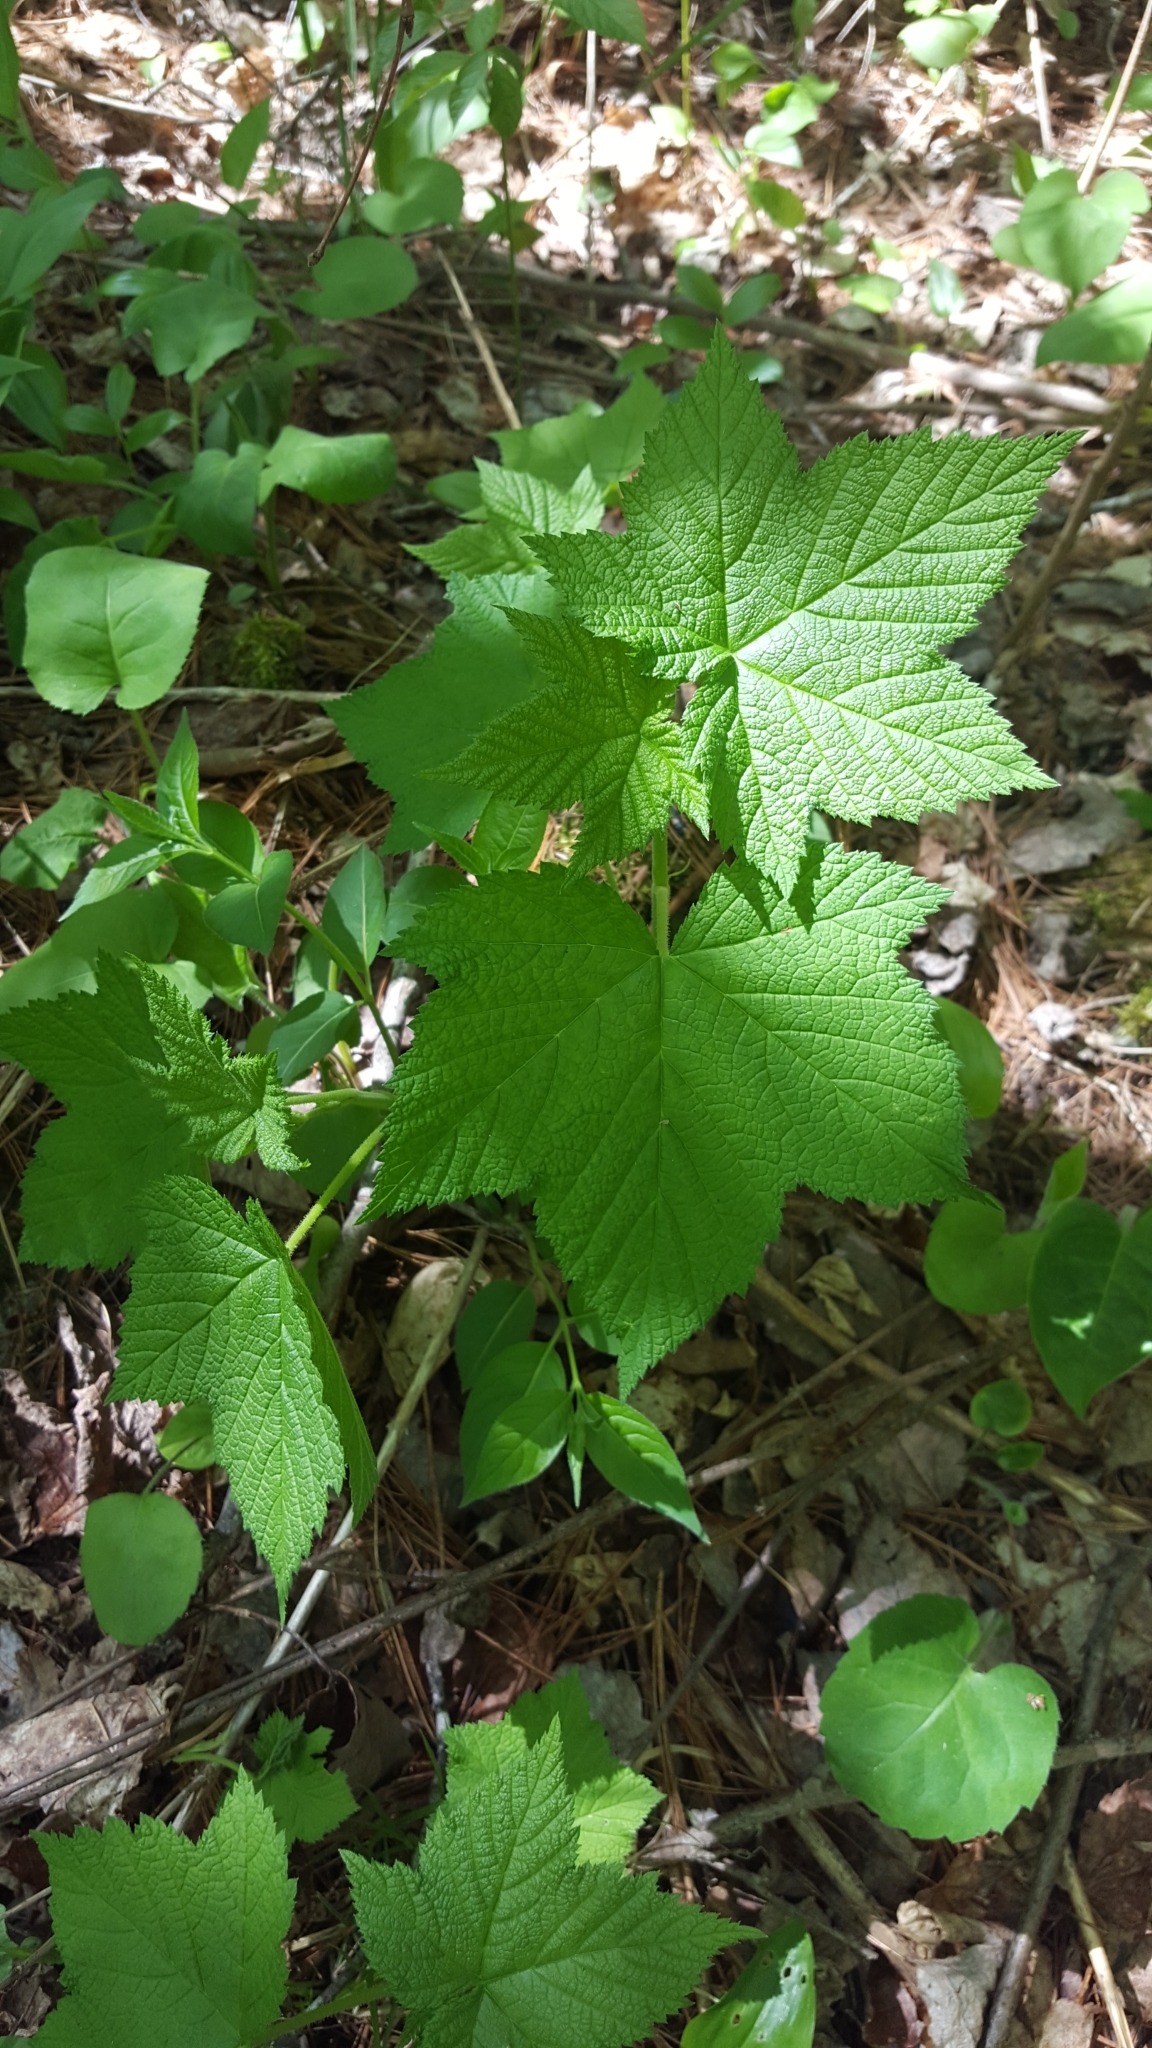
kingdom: Plantae
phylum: Tracheophyta
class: Magnoliopsida
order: Rosales
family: Rosaceae
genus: Rubus
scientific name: Rubus parviflorus
